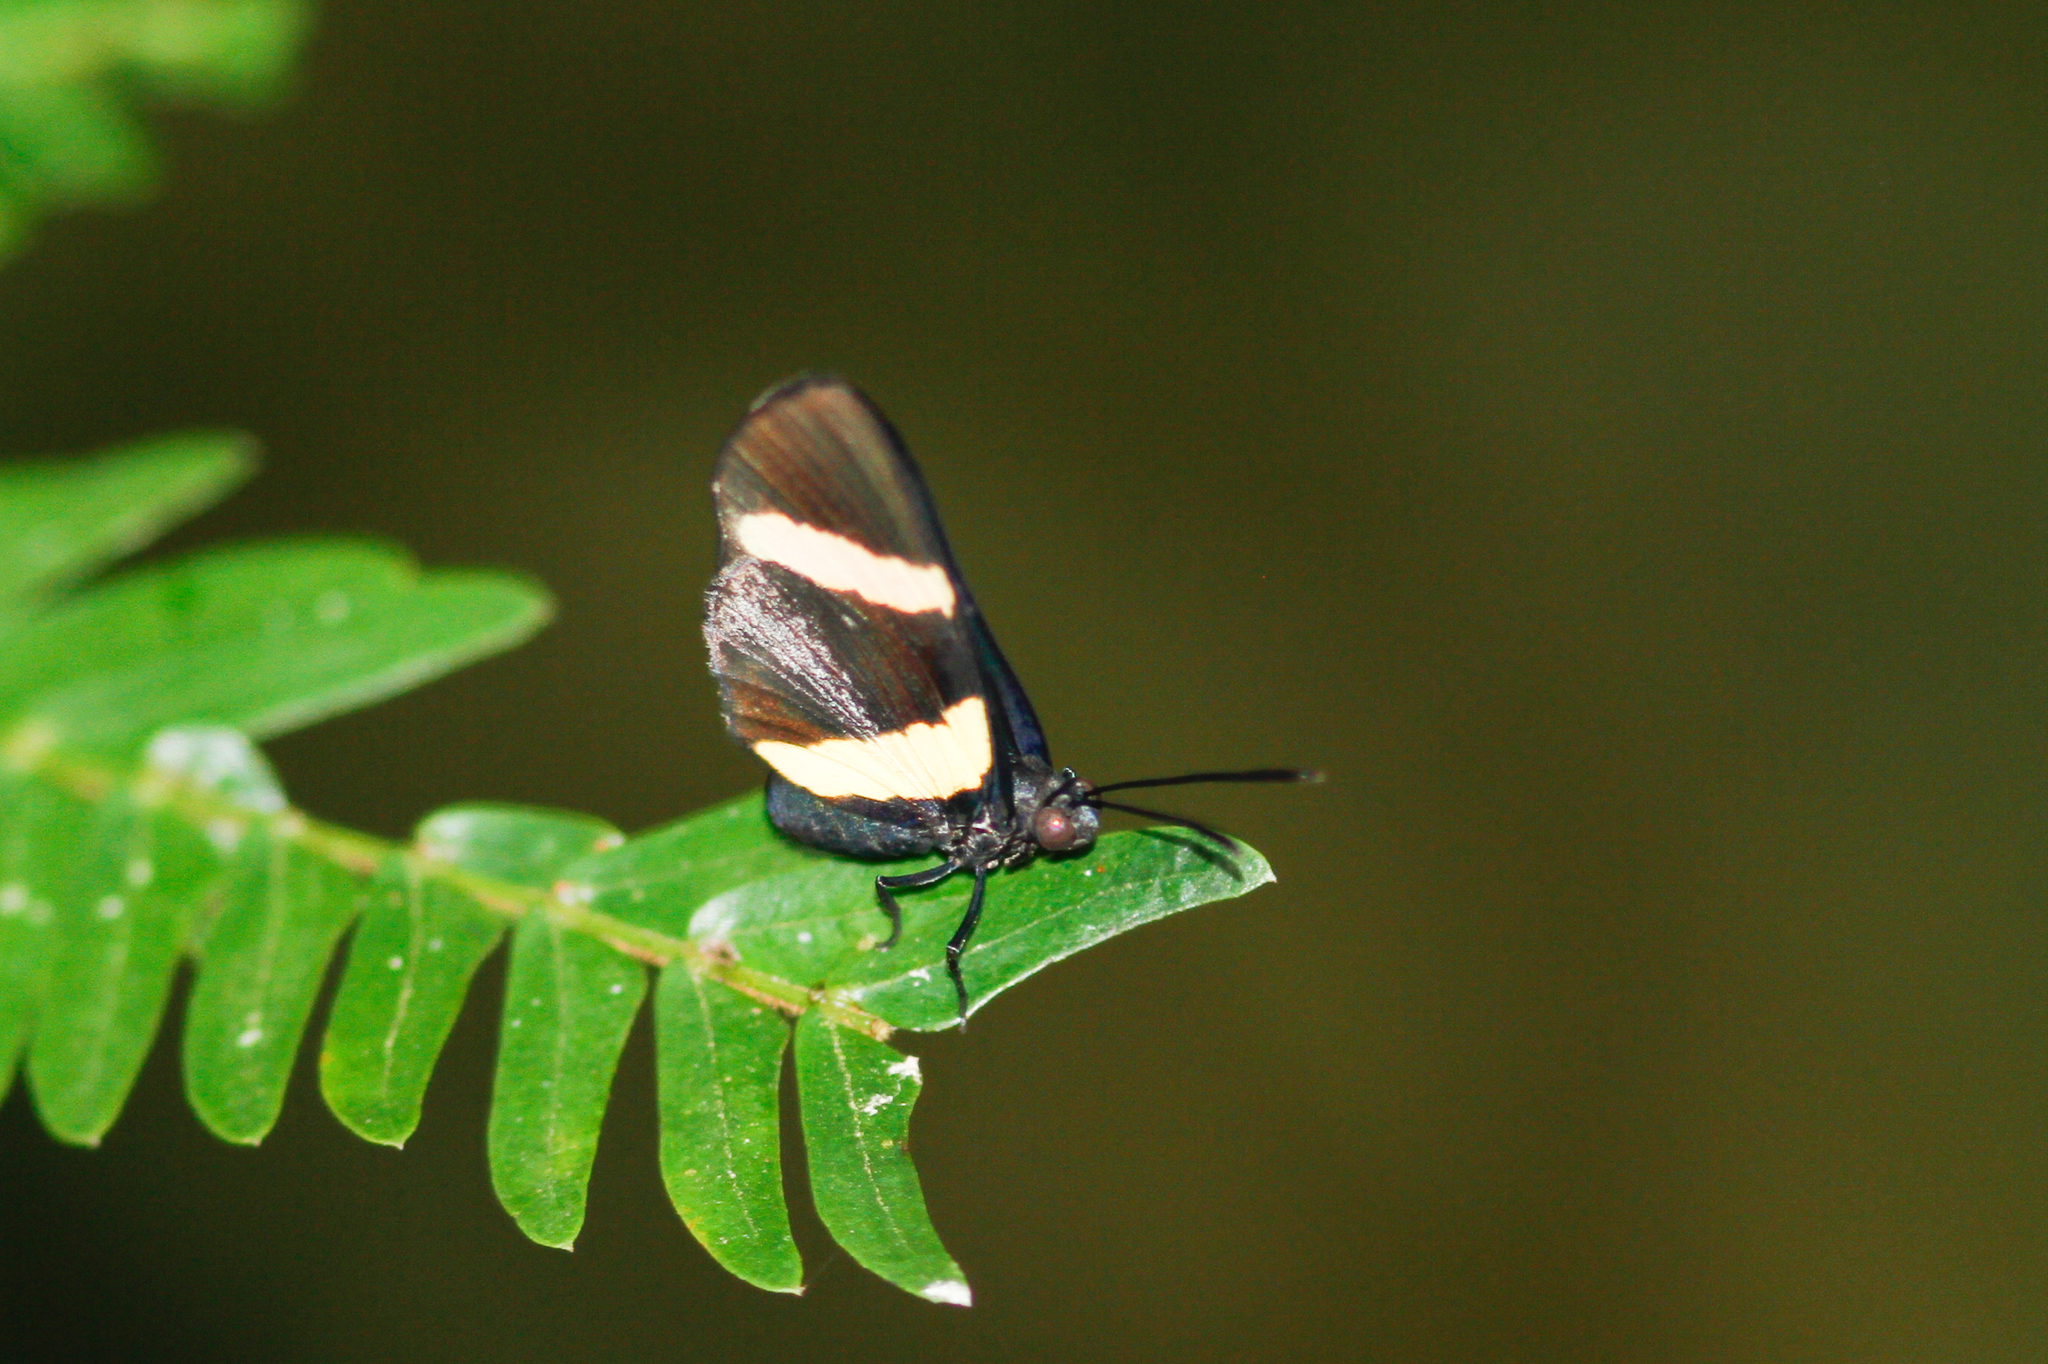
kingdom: Animalia
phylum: Arthropoda
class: Insecta
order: Lepidoptera
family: Lycaenidae
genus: Melanis
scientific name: Melanis agyrtus
